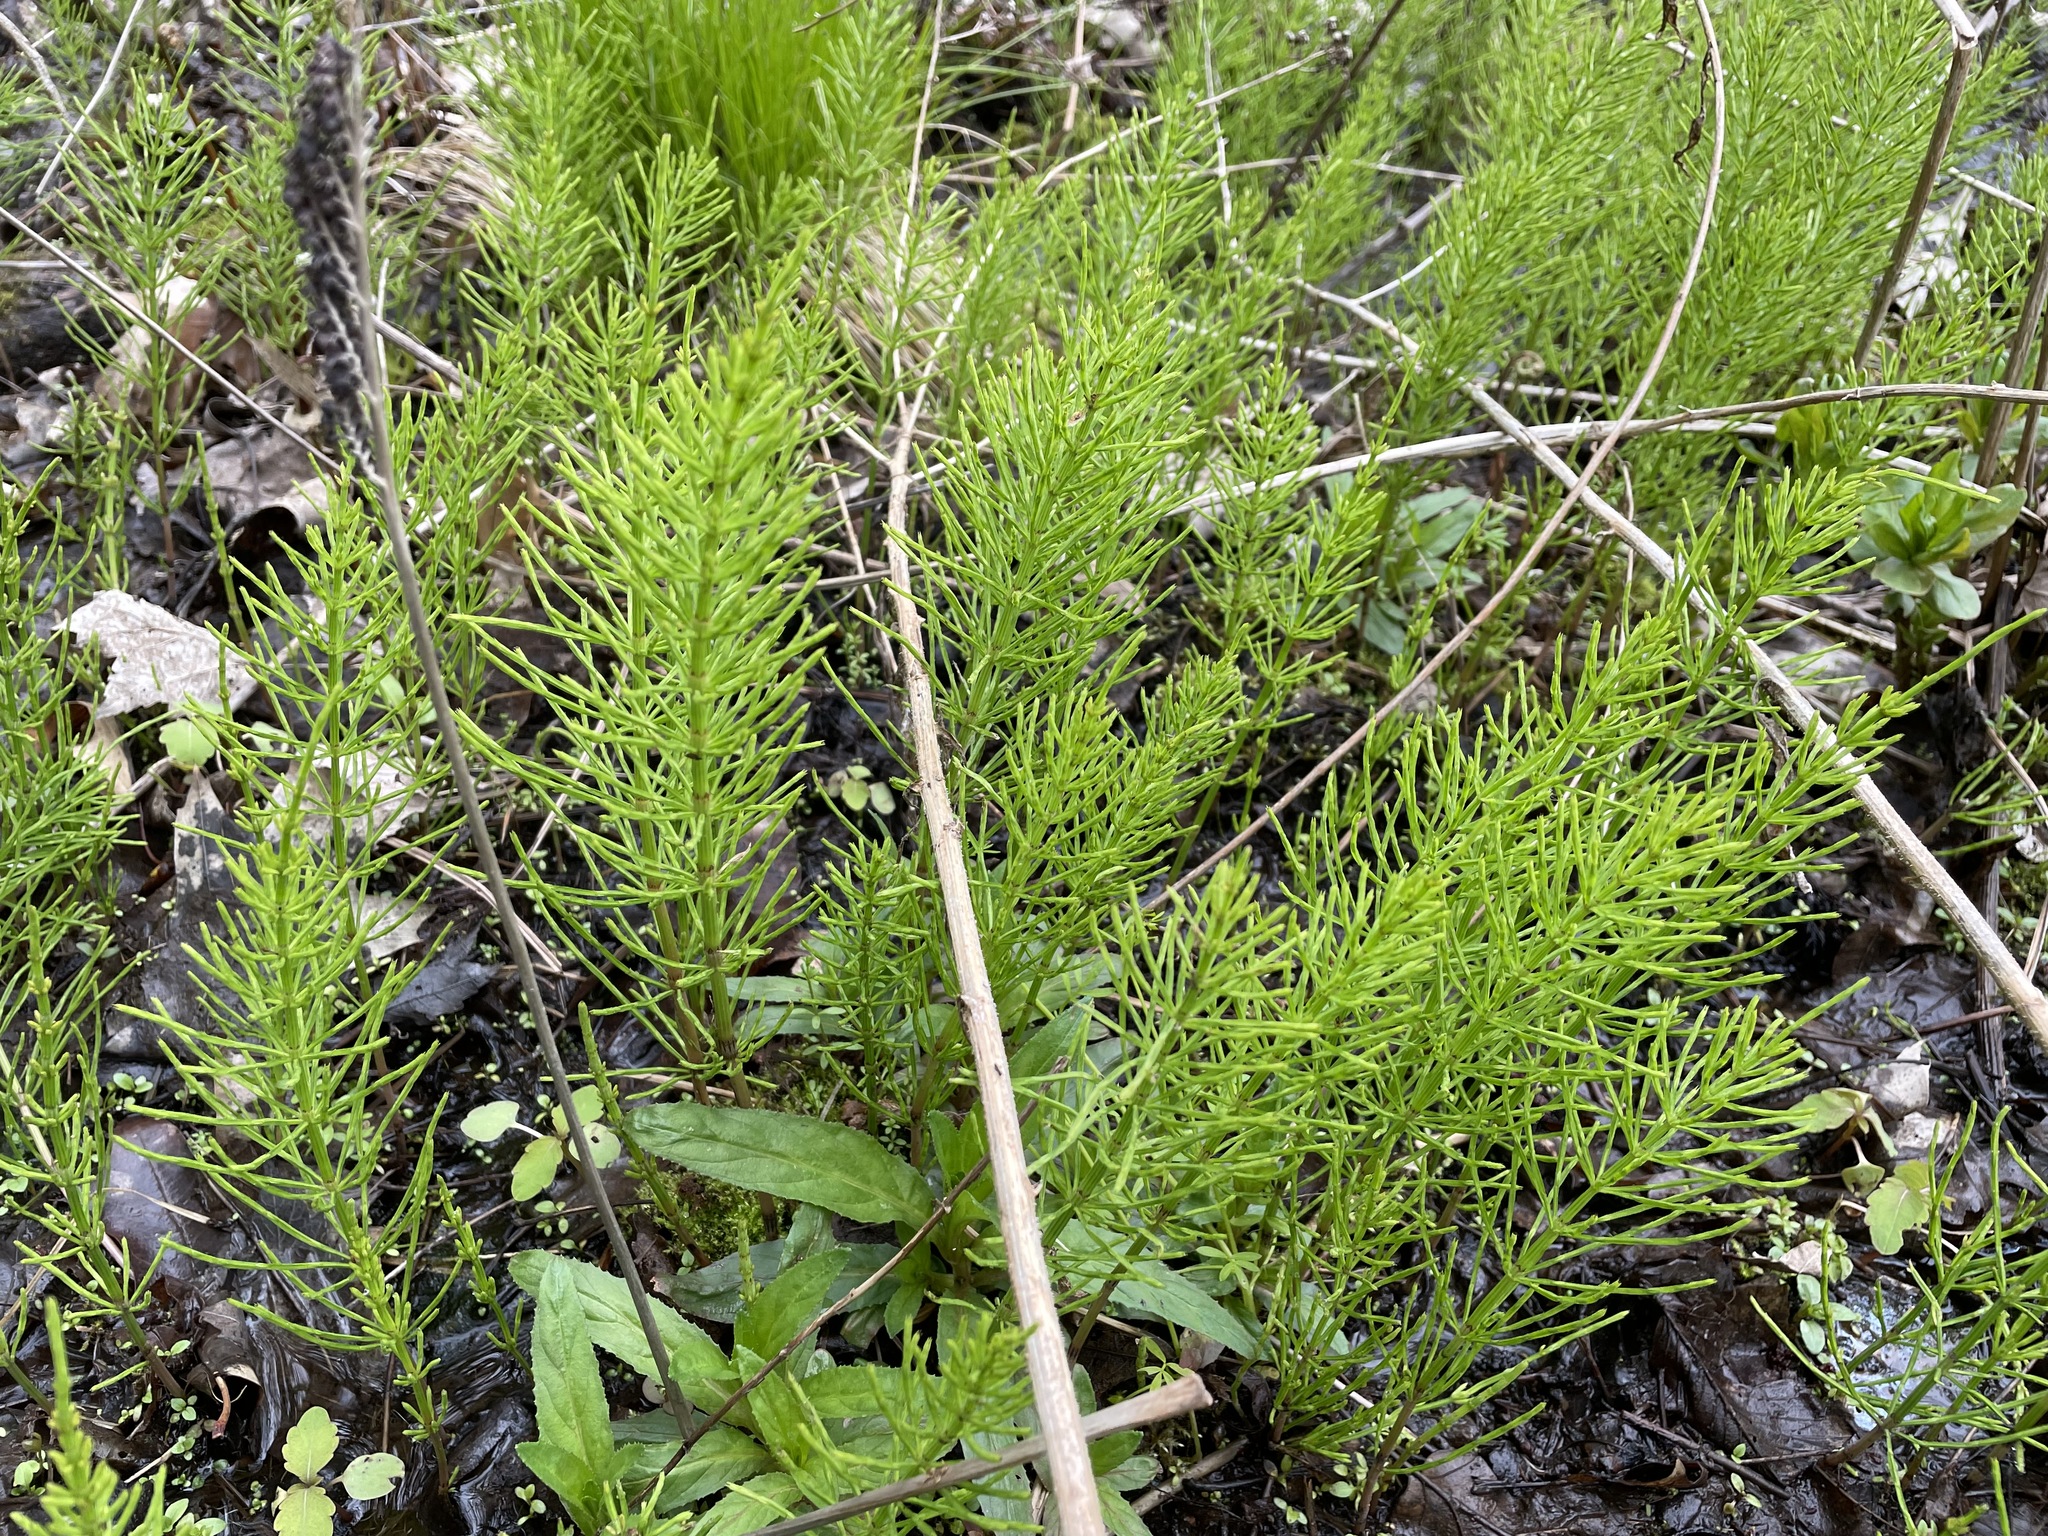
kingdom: Plantae
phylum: Tracheophyta
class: Polypodiopsida
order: Equisetales
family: Equisetaceae
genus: Equisetum
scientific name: Equisetum arvense
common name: Field horsetail
